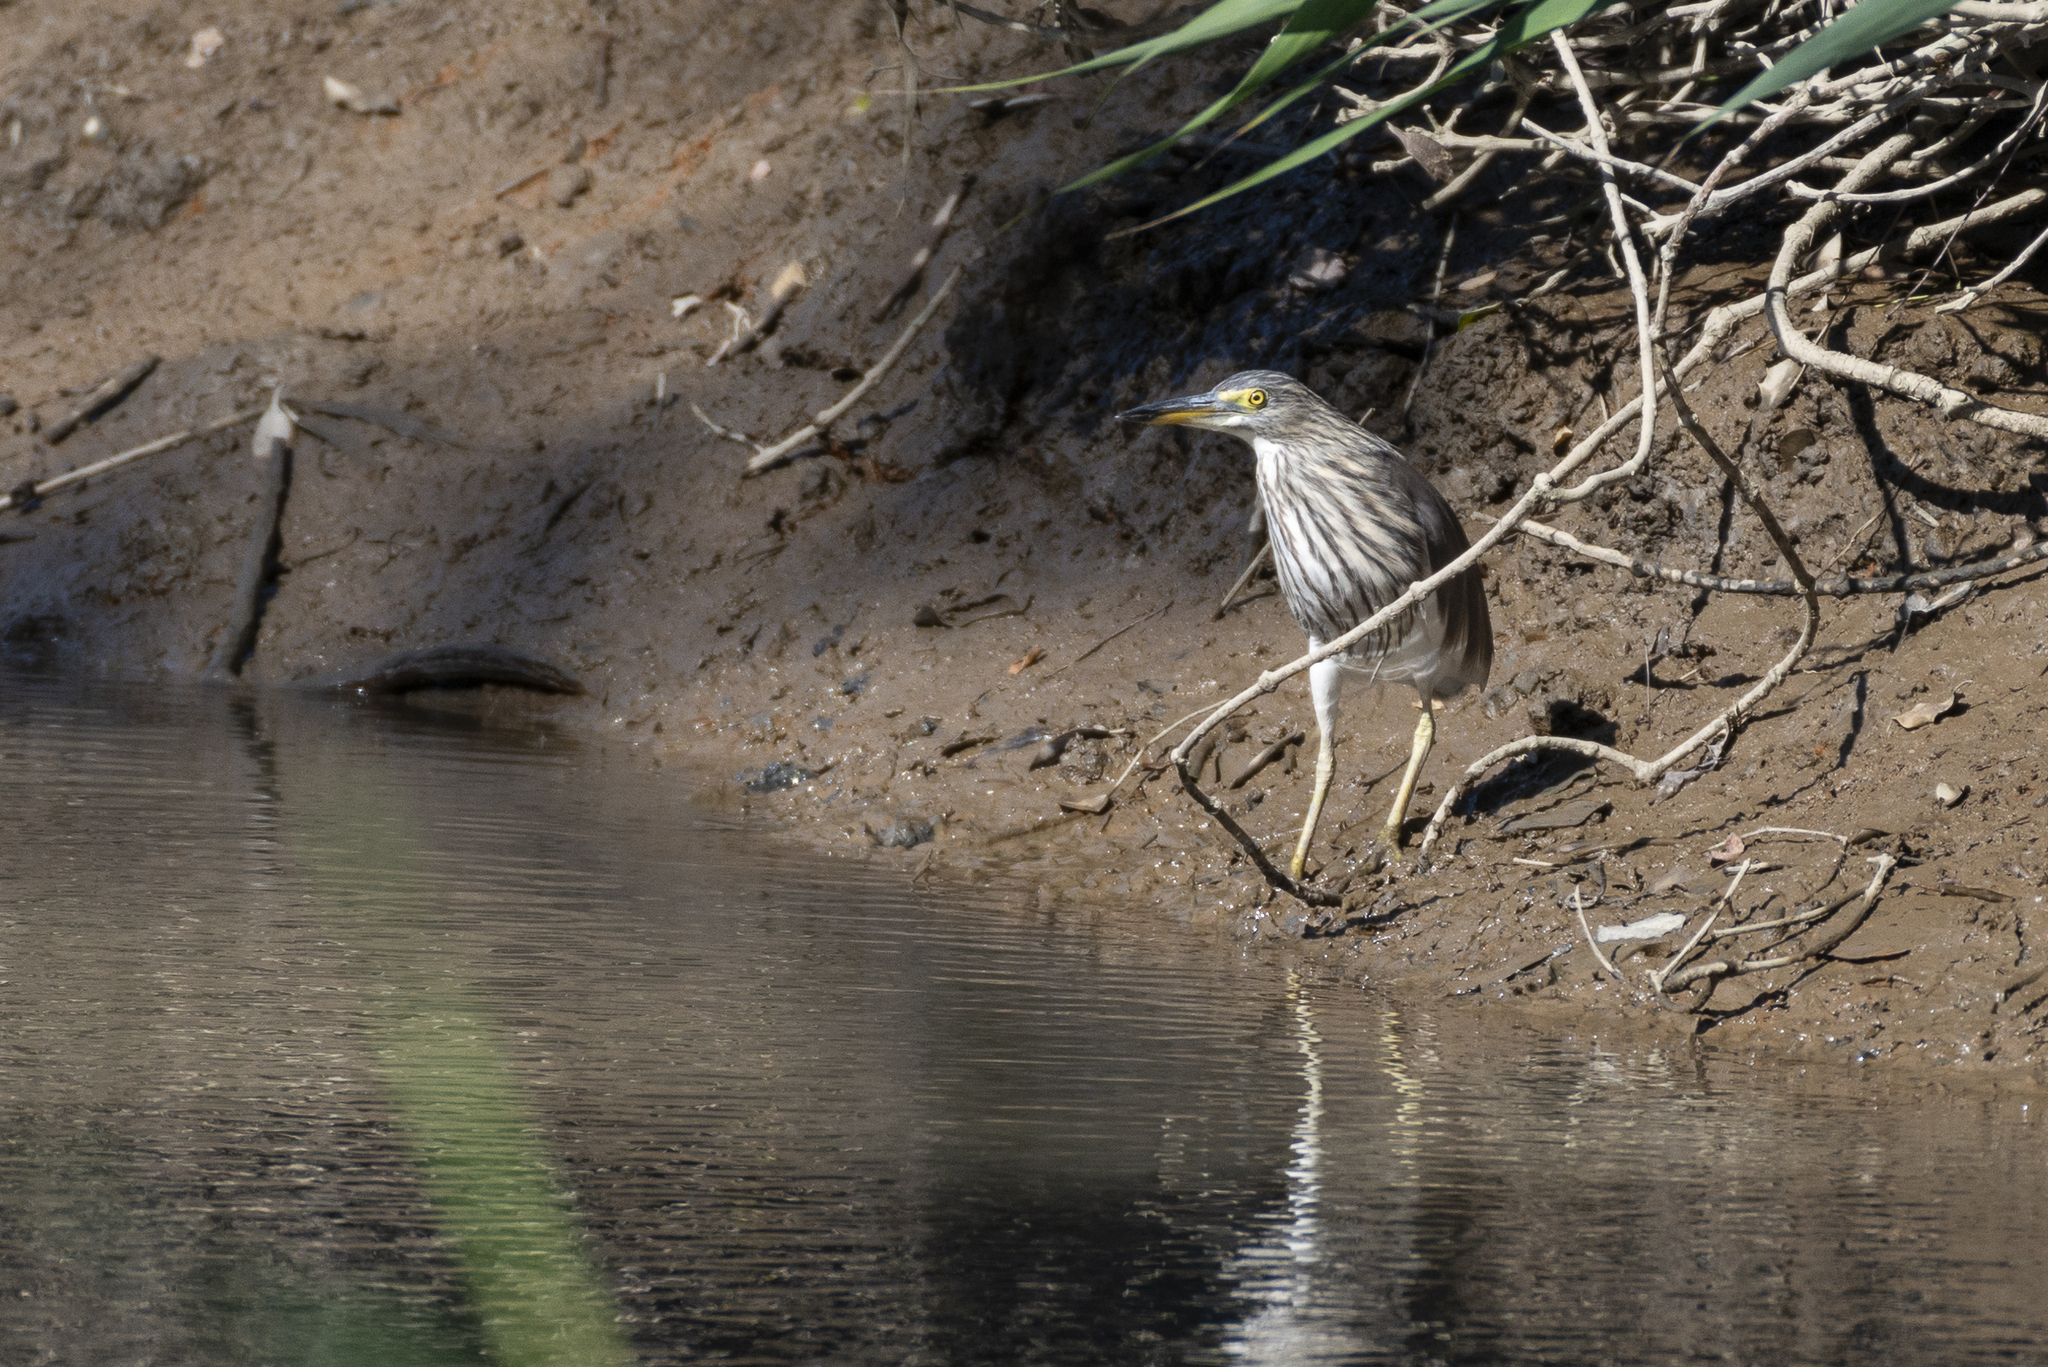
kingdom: Animalia
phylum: Chordata
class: Aves
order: Pelecaniformes
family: Ardeidae
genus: Ardeola
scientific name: Ardeola bacchus
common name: Chinese pond heron
